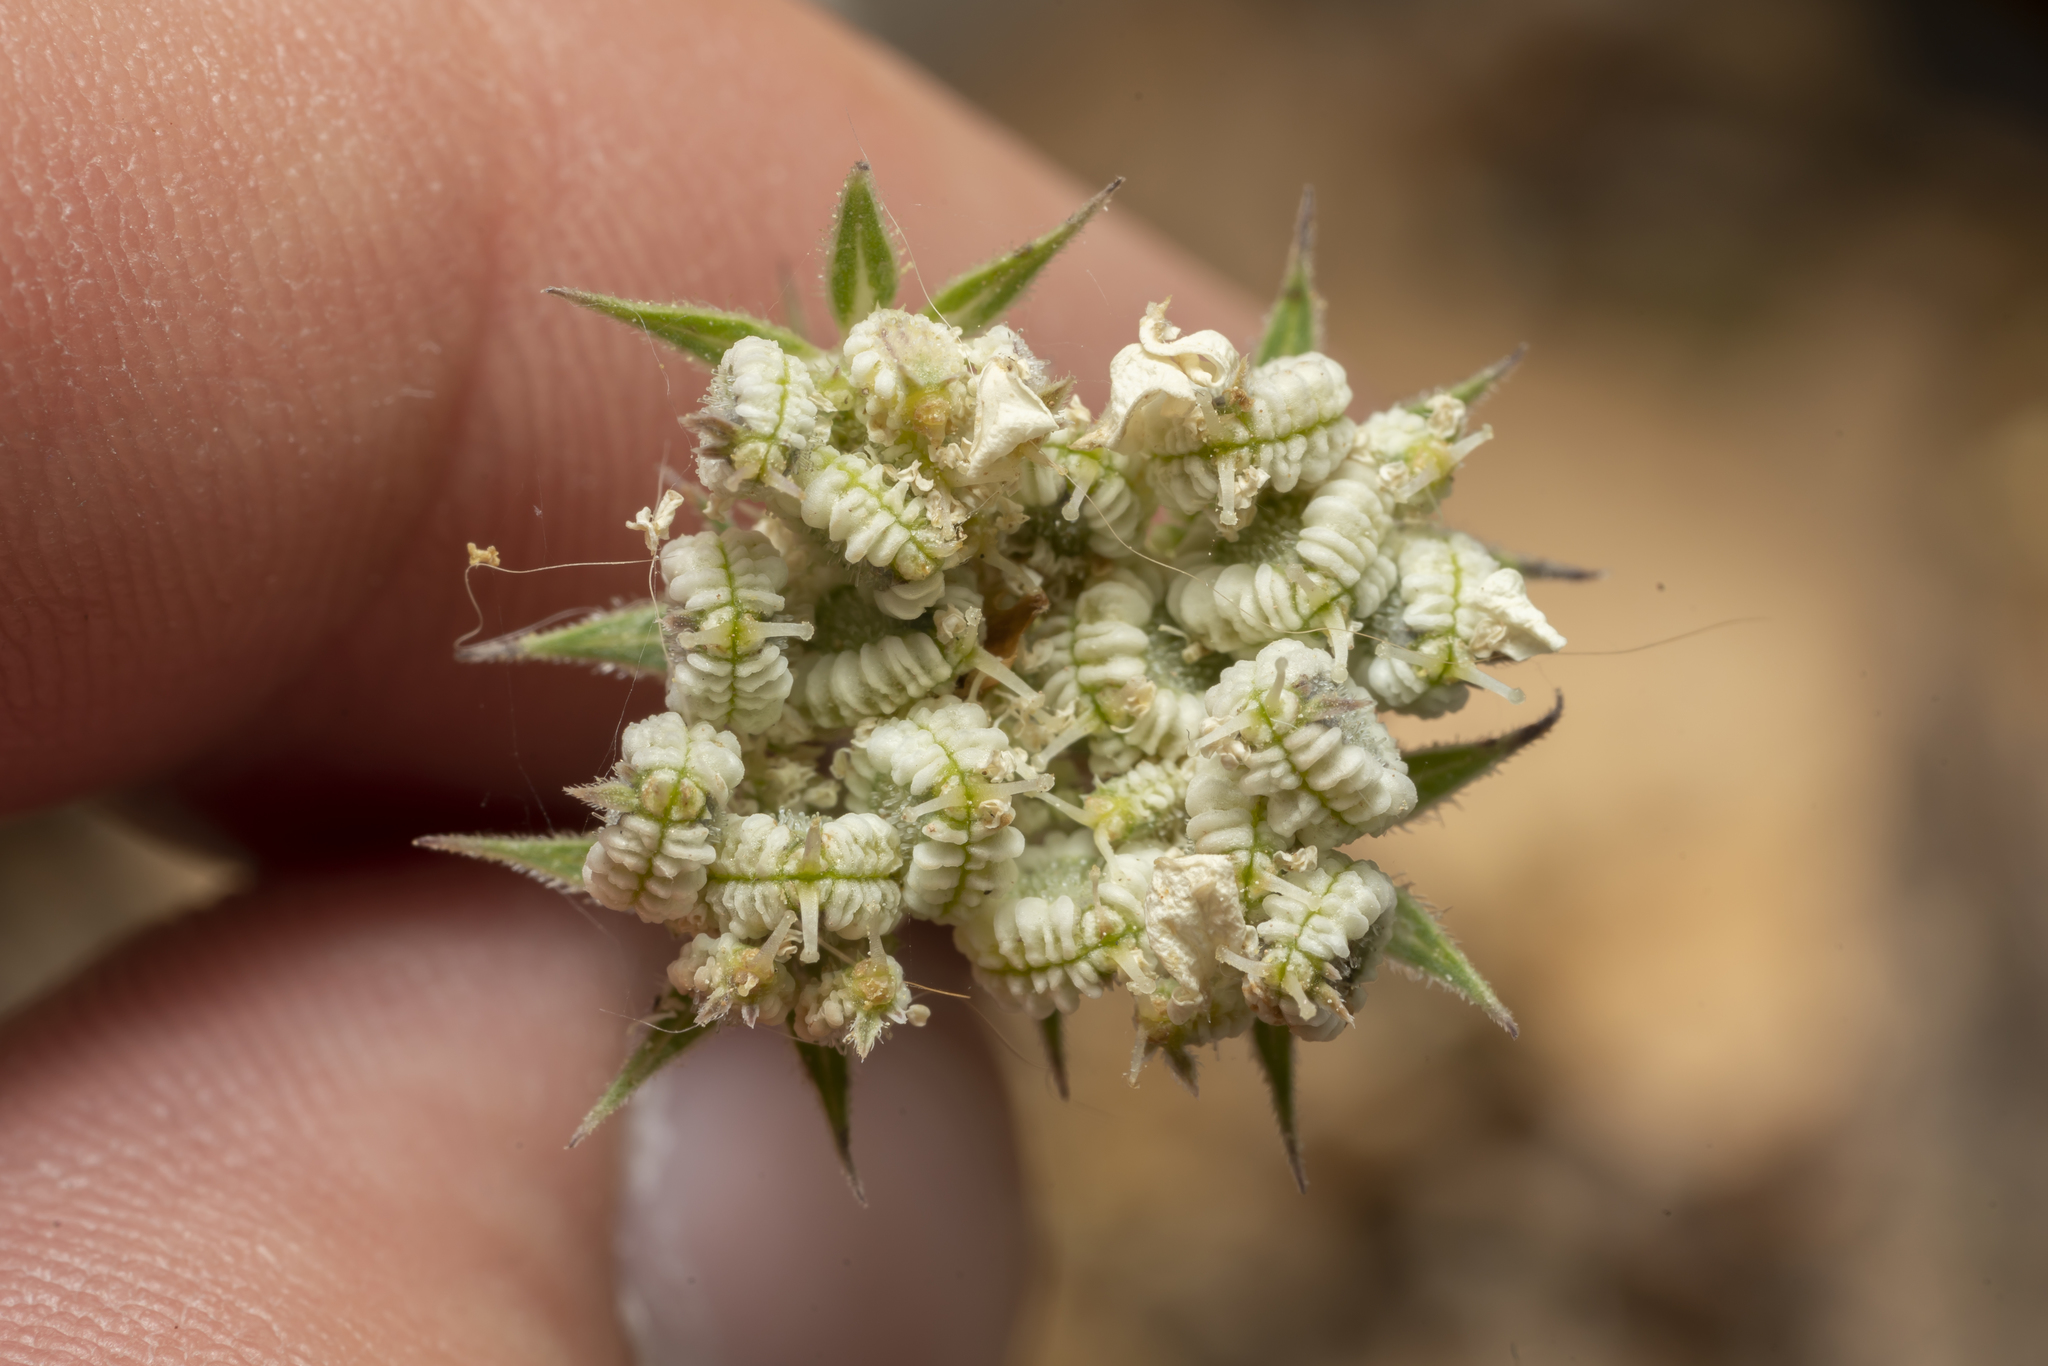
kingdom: Plantae
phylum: Tracheophyta
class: Magnoliopsida
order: Apiales
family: Apiaceae
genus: Tordylium
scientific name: Tordylium aegaeum
